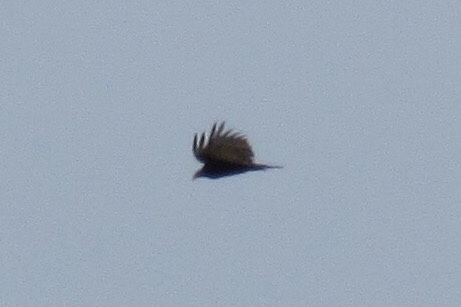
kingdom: Animalia
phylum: Chordata
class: Aves
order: Accipitriformes
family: Cathartidae
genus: Cathartes
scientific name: Cathartes aura
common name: Turkey vulture
